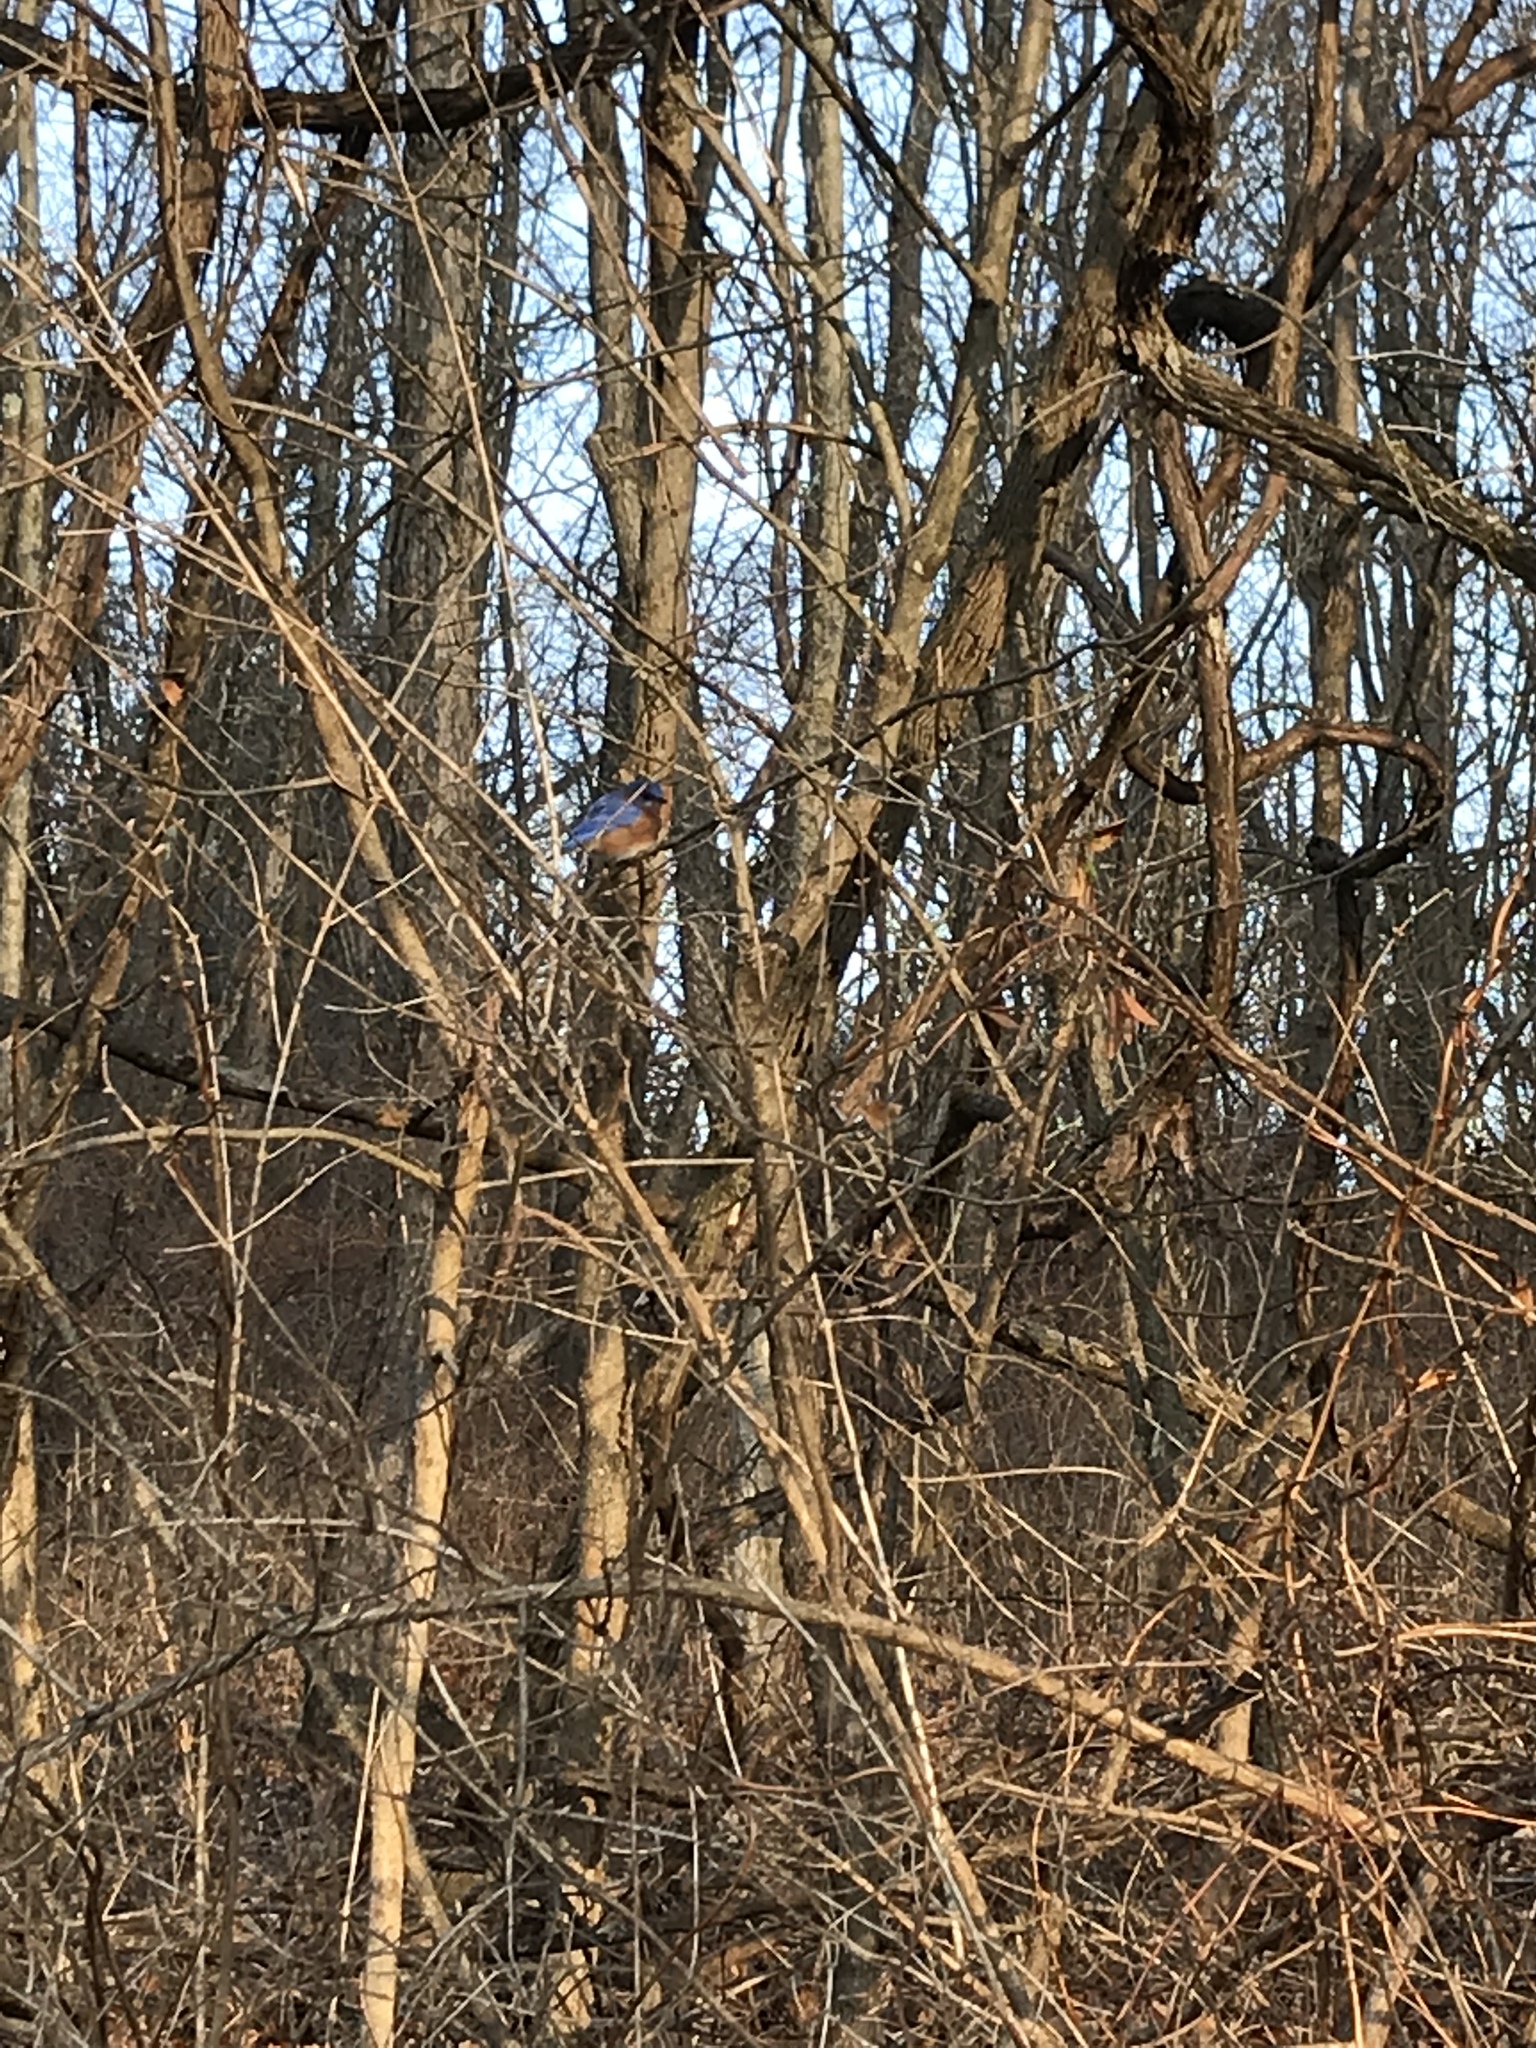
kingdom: Animalia
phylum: Chordata
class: Aves
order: Passeriformes
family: Turdidae
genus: Sialia
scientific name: Sialia sialis
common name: Eastern bluebird
